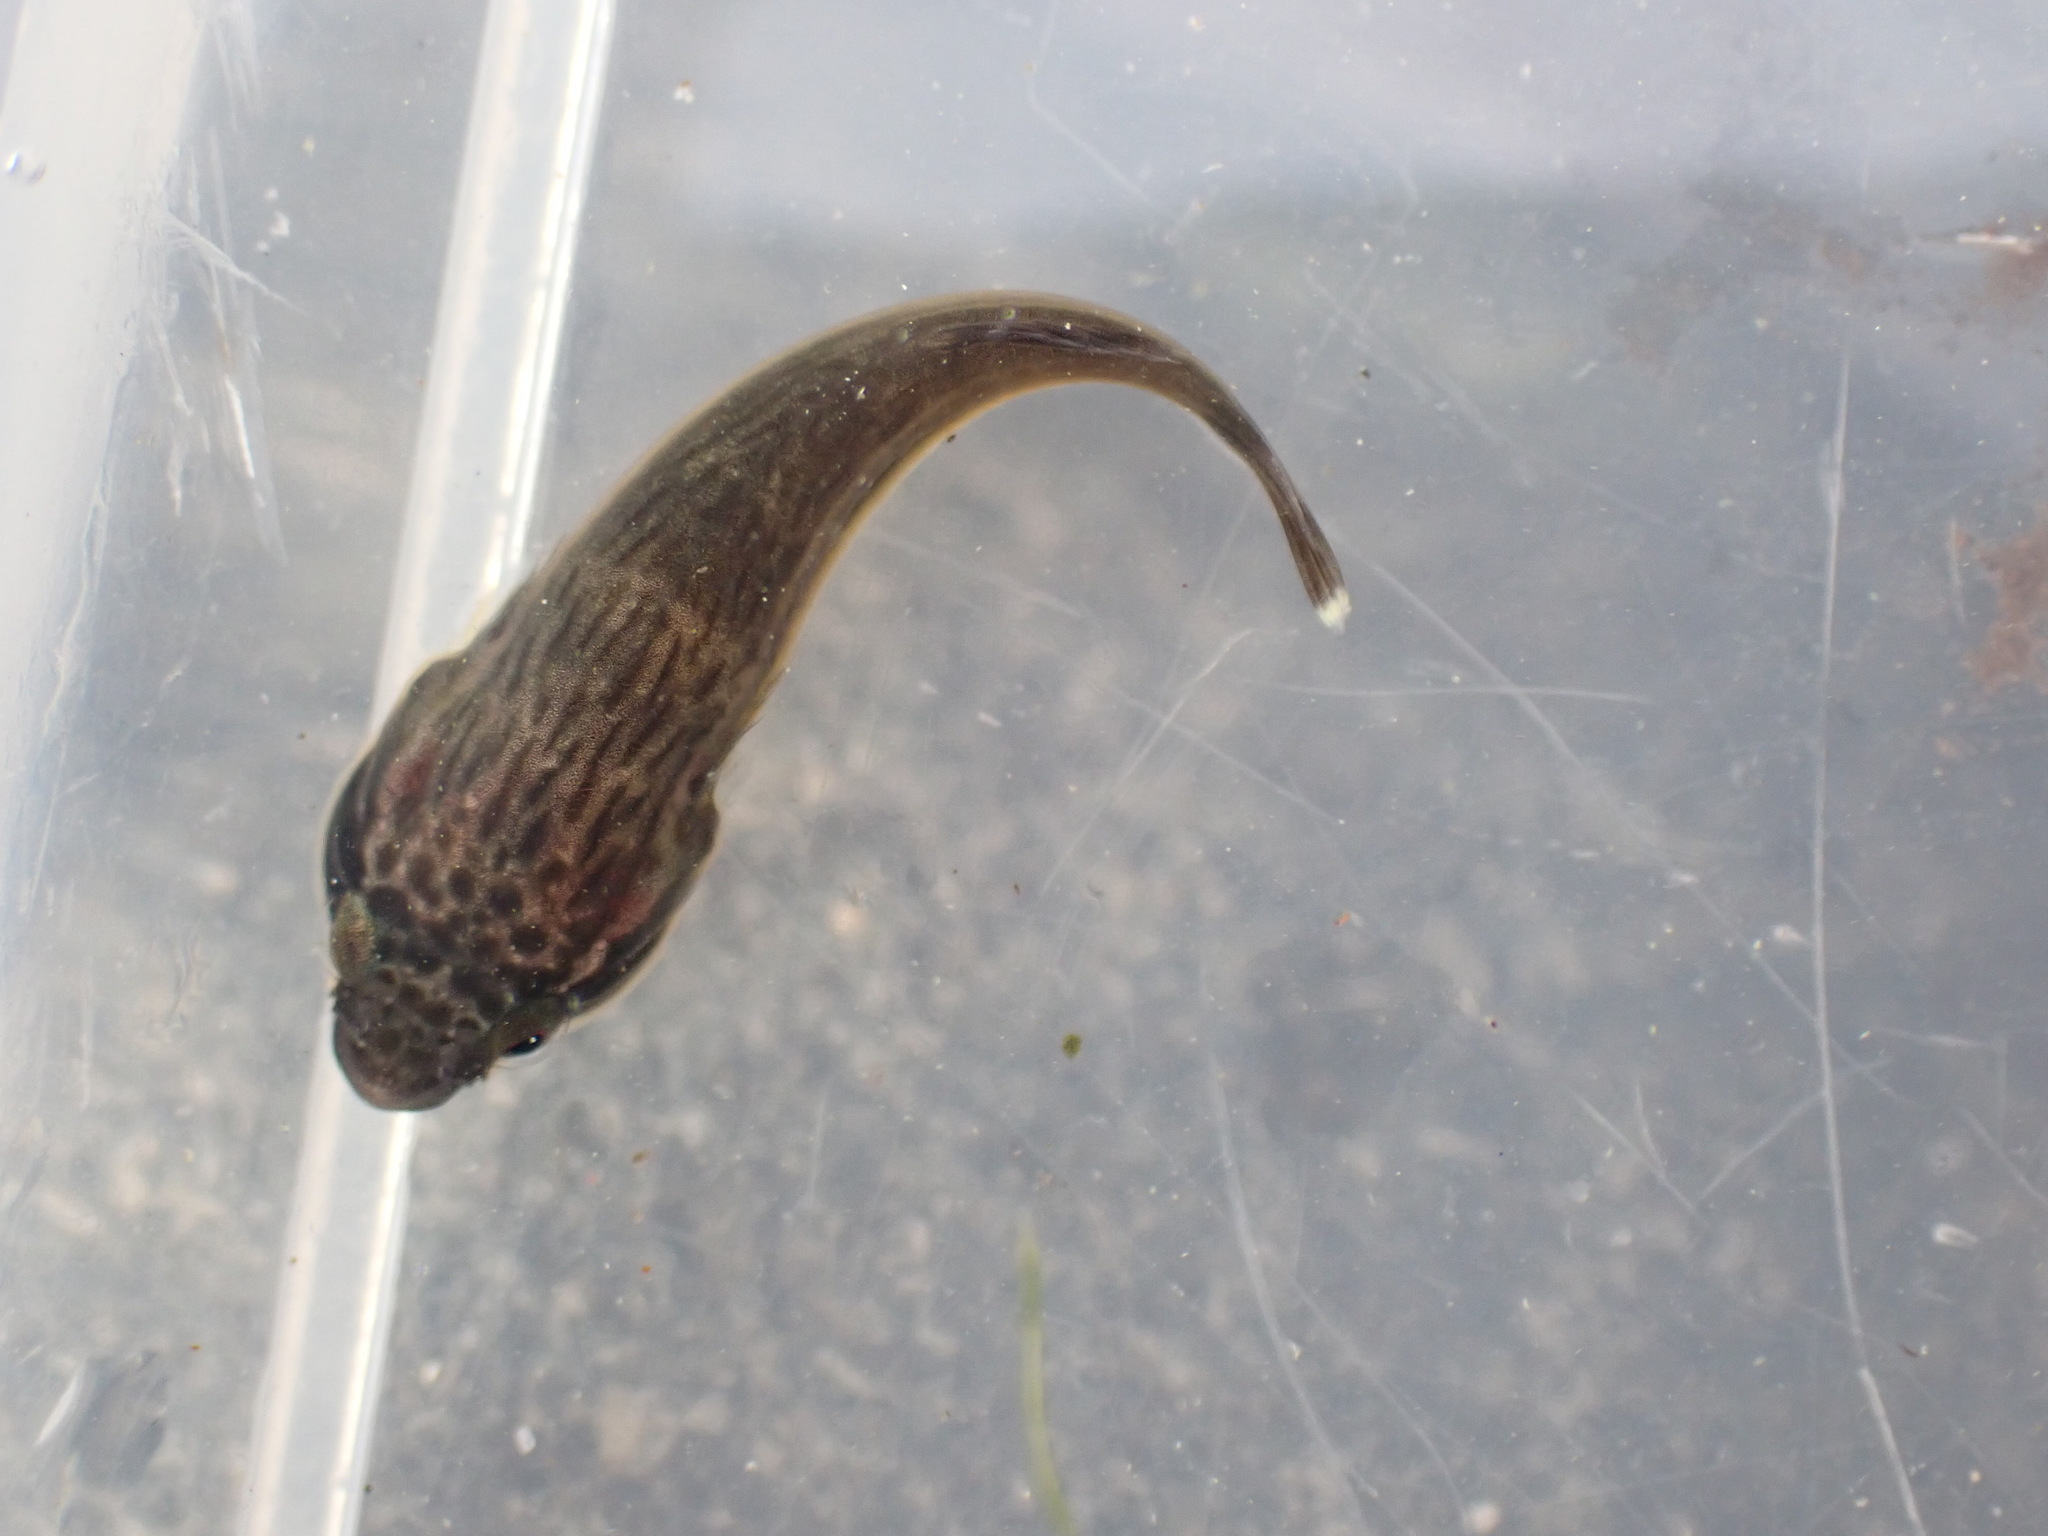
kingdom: Animalia
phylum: Chordata
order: Gobiesociformes
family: Gobiesocidae
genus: Trachelochismus
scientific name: Trachelochismus pinnulatus
